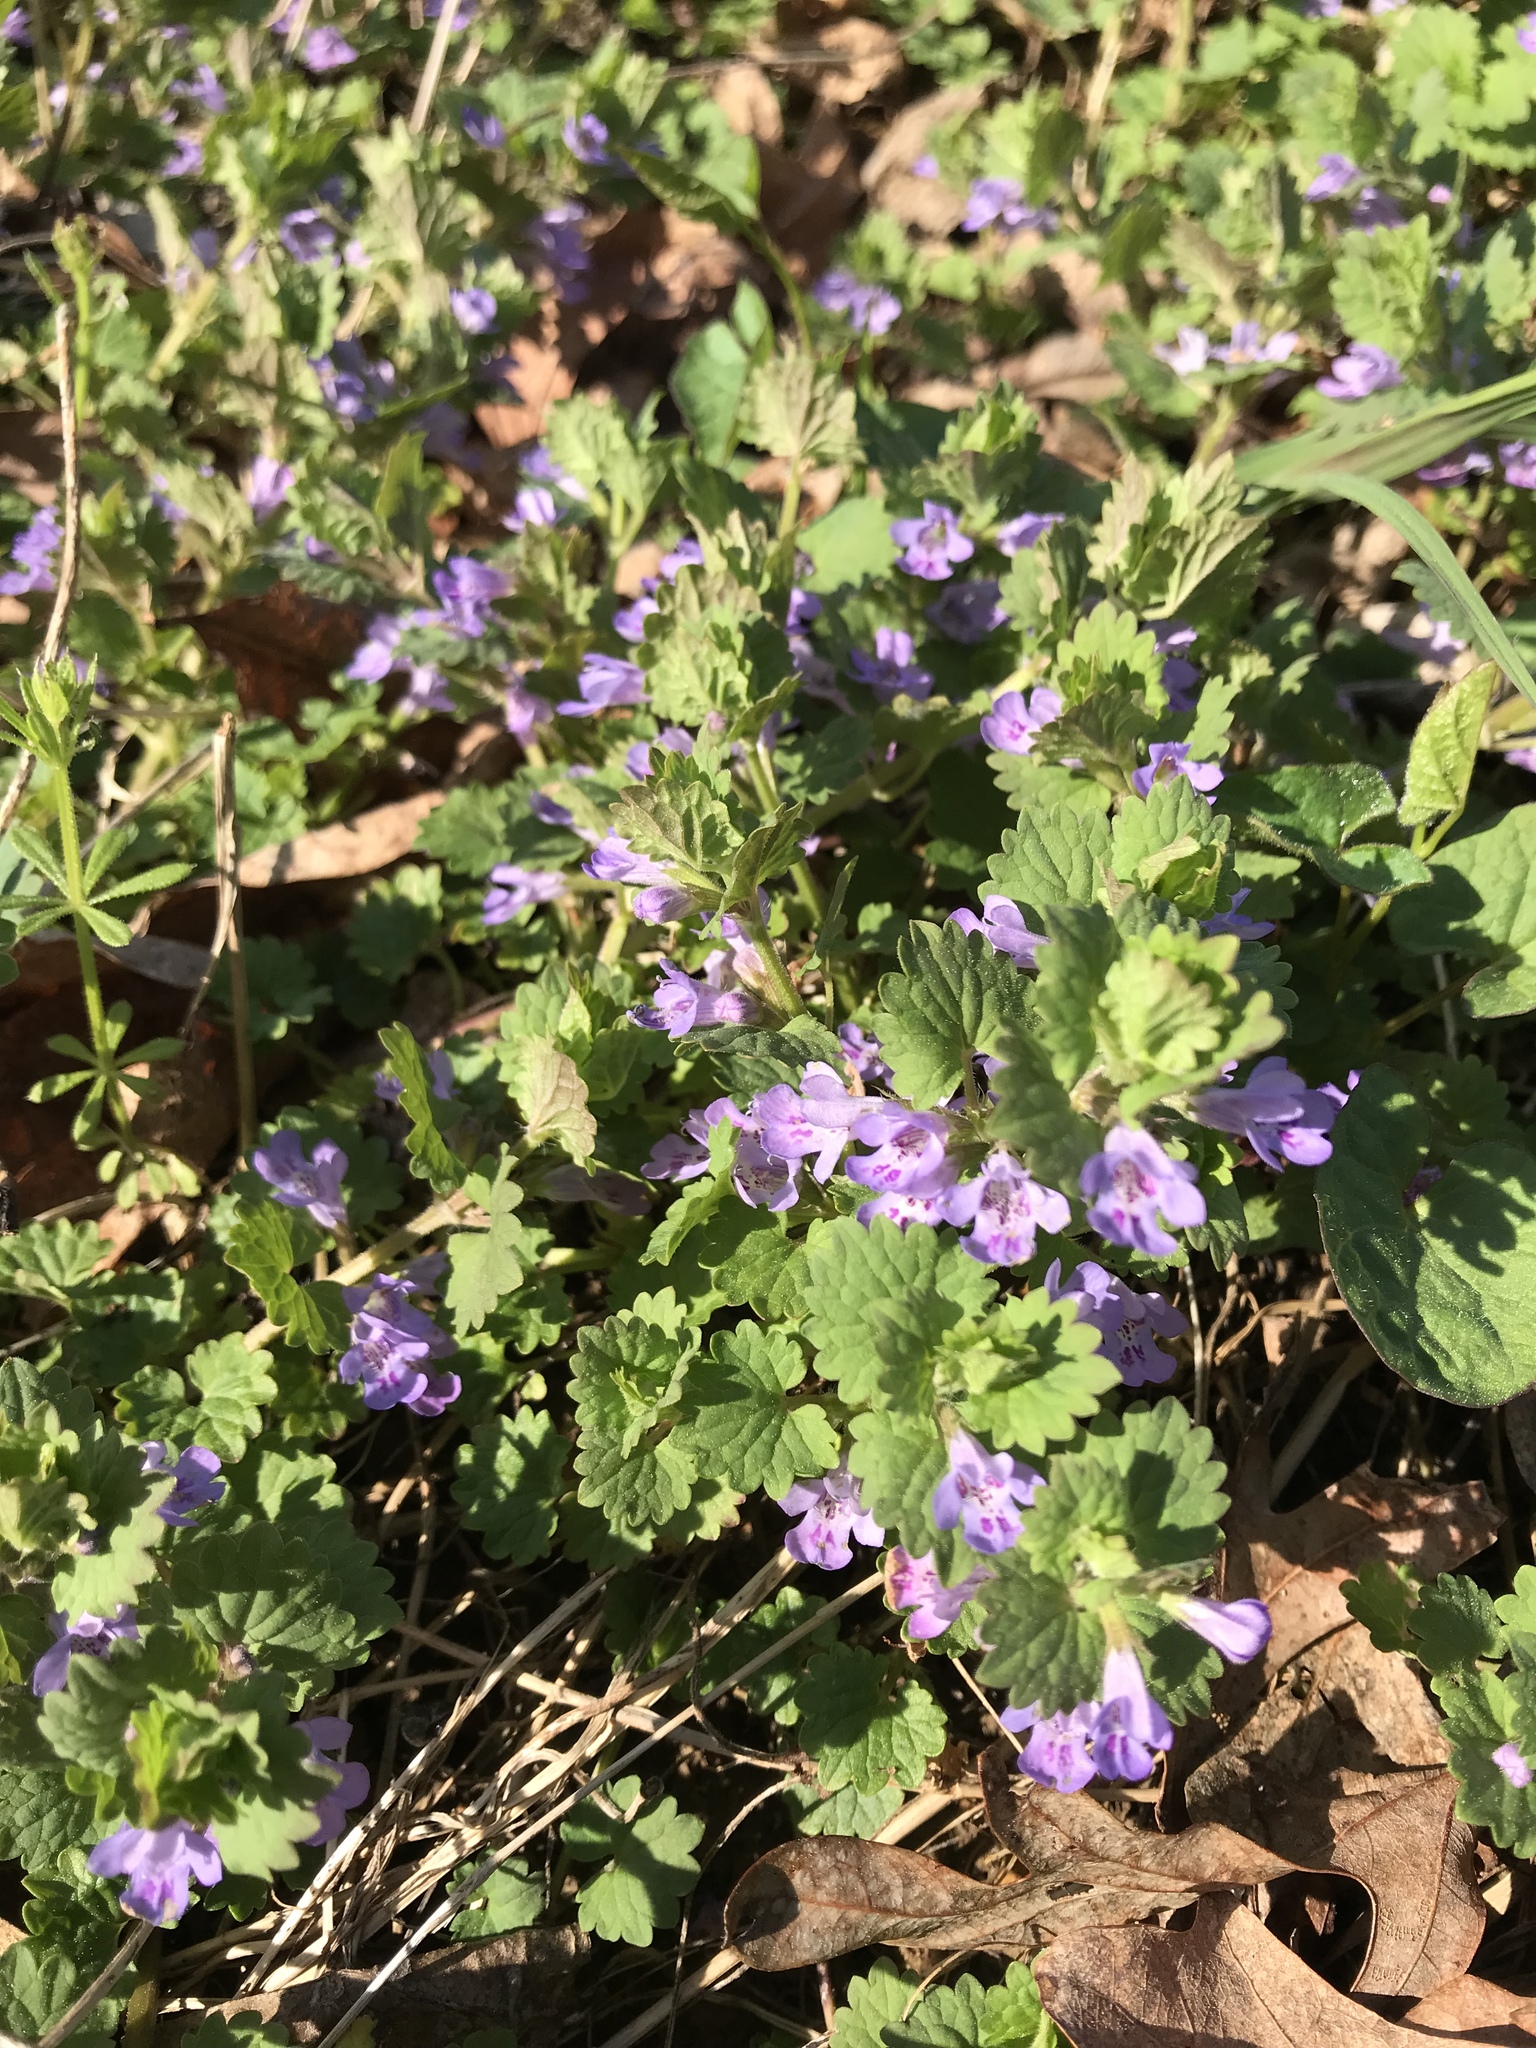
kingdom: Plantae
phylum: Tracheophyta
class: Magnoliopsida
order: Lamiales
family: Lamiaceae
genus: Glechoma
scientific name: Glechoma hederacea
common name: Ground ivy
